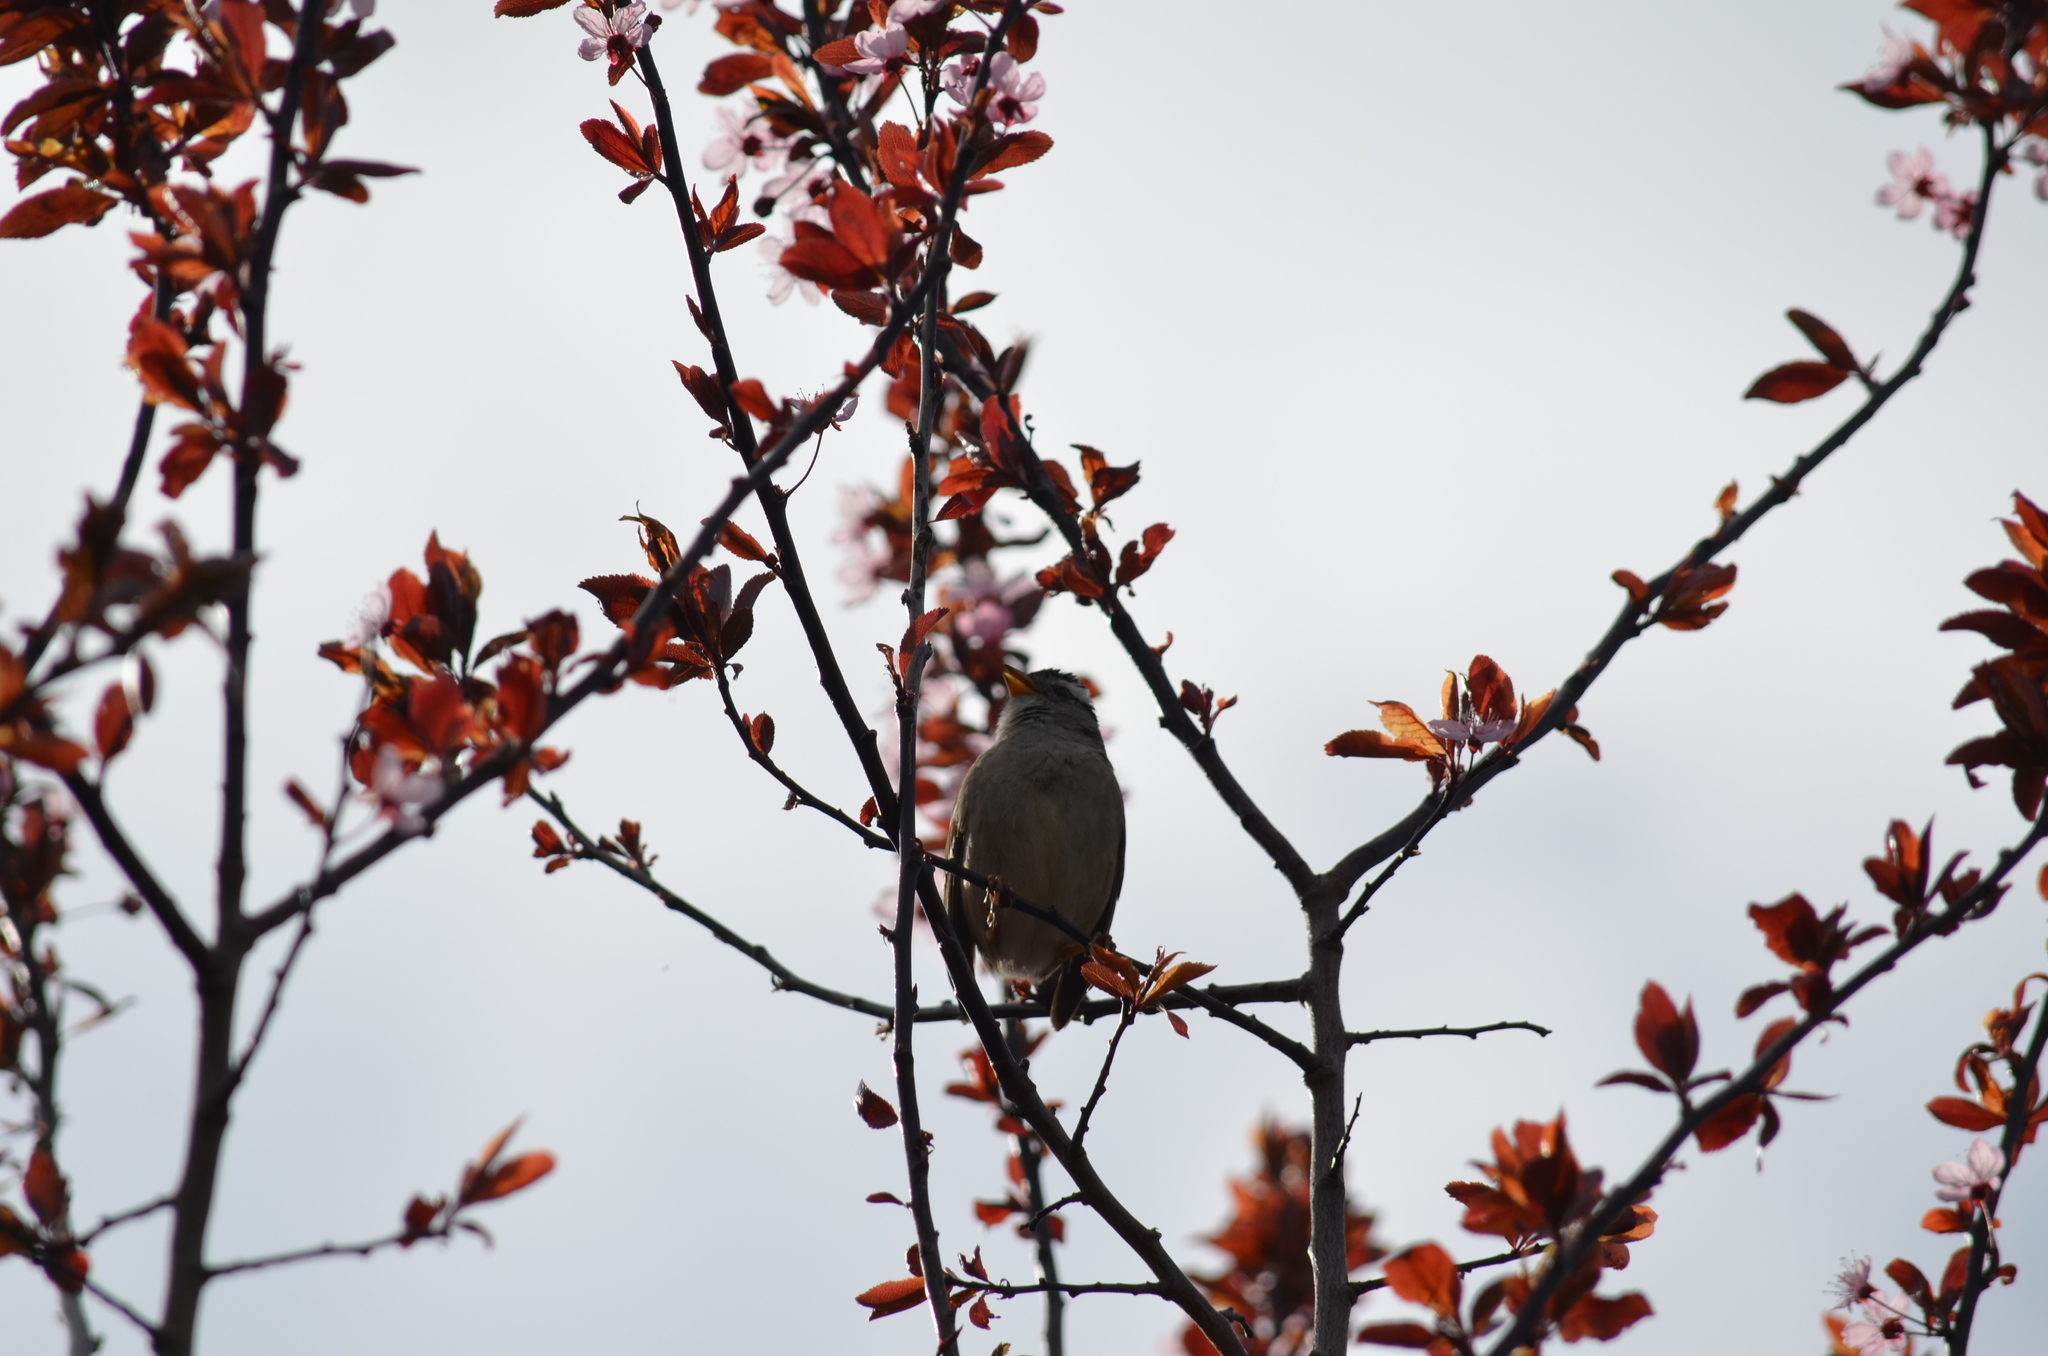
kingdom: Animalia
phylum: Chordata
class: Aves
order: Passeriformes
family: Passerellidae
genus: Zonotrichia
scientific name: Zonotrichia leucophrys
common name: White-crowned sparrow
